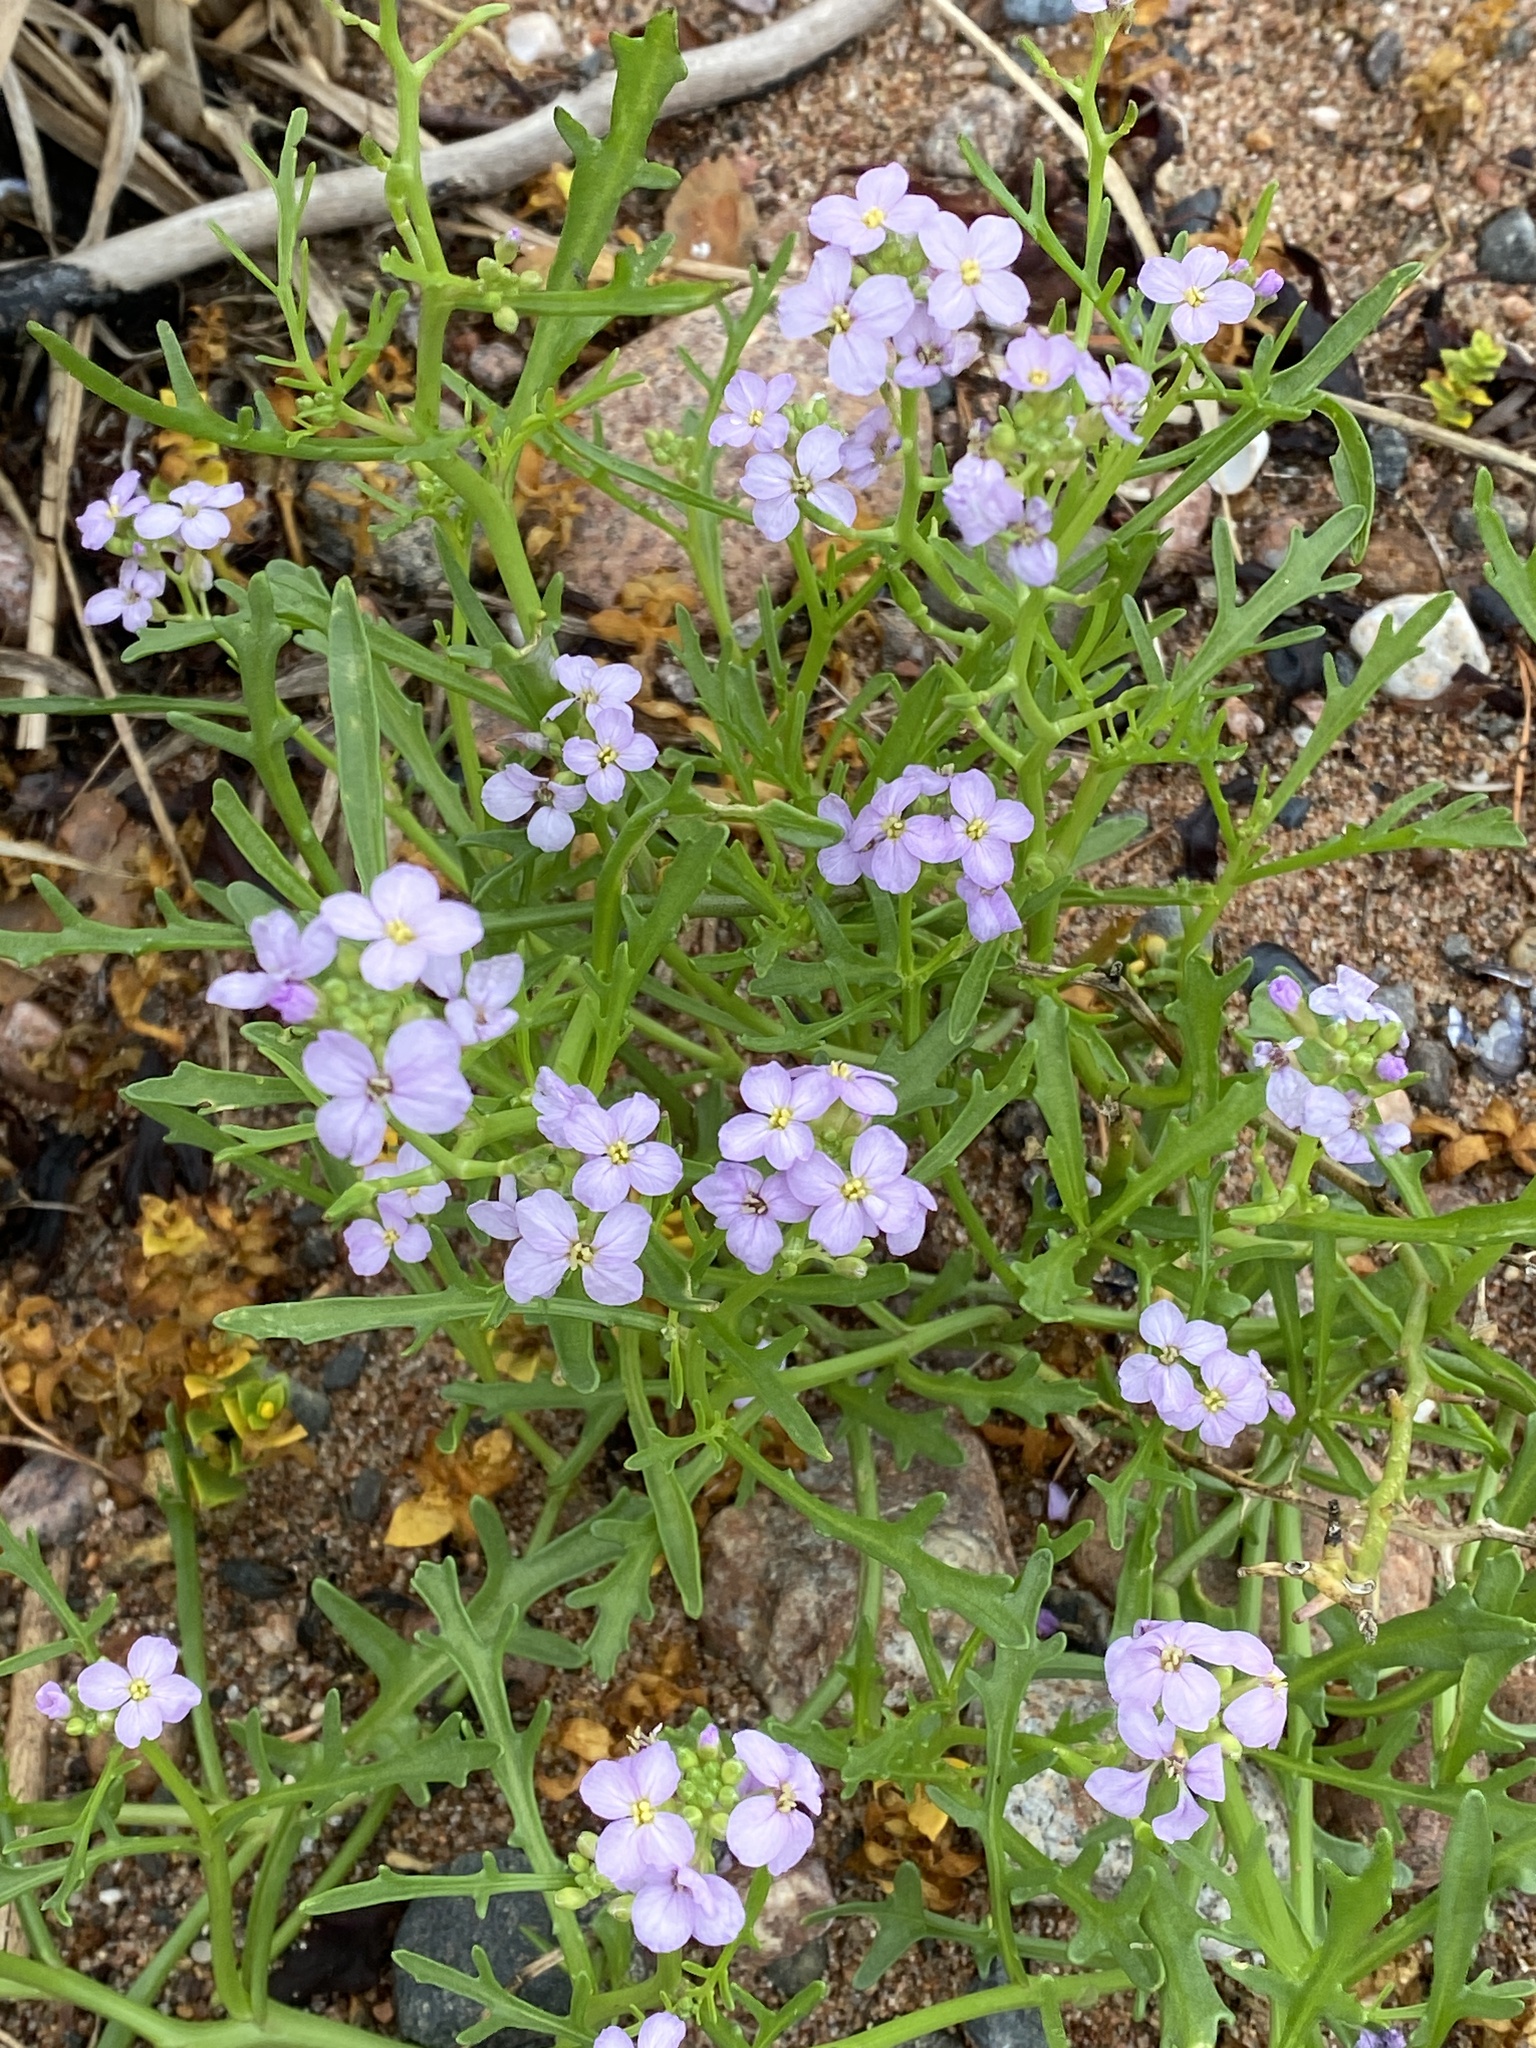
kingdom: Plantae
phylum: Tracheophyta
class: Magnoliopsida
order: Brassicales
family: Brassicaceae
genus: Cakile
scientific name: Cakile maritima
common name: Sea rocket
